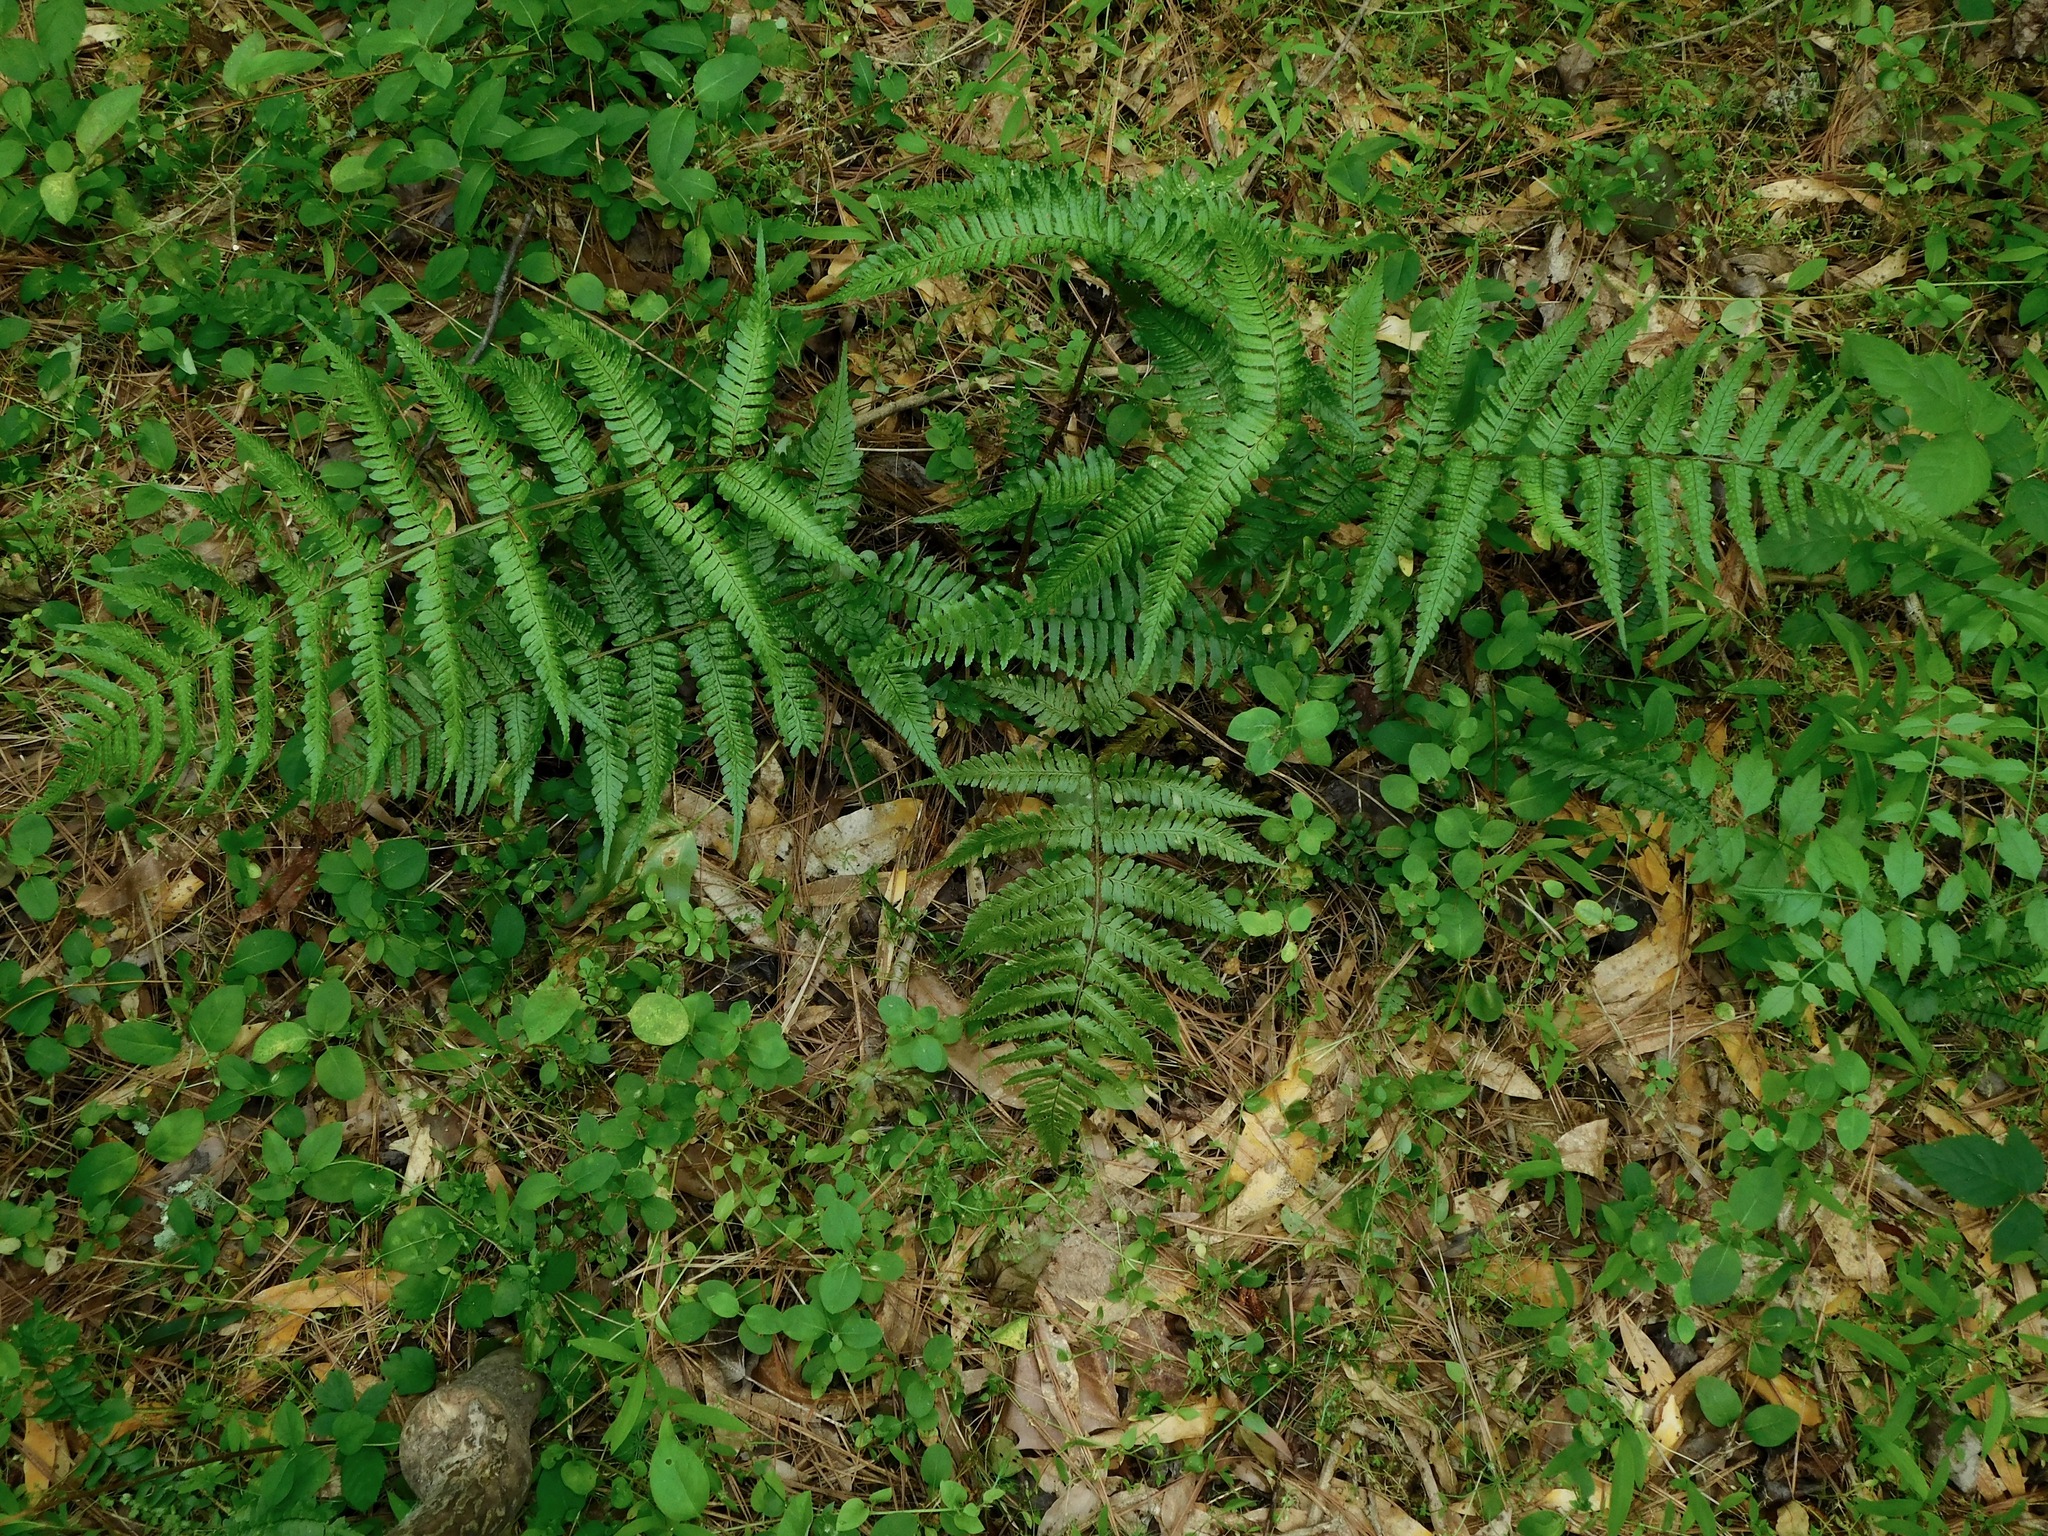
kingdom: Plantae
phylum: Tracheophyta
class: Polypodiopsida
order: Polypodiales
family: Dryopteridaceae
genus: Dryopteris
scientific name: Dryopteris erythrosora
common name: Autumn fern
